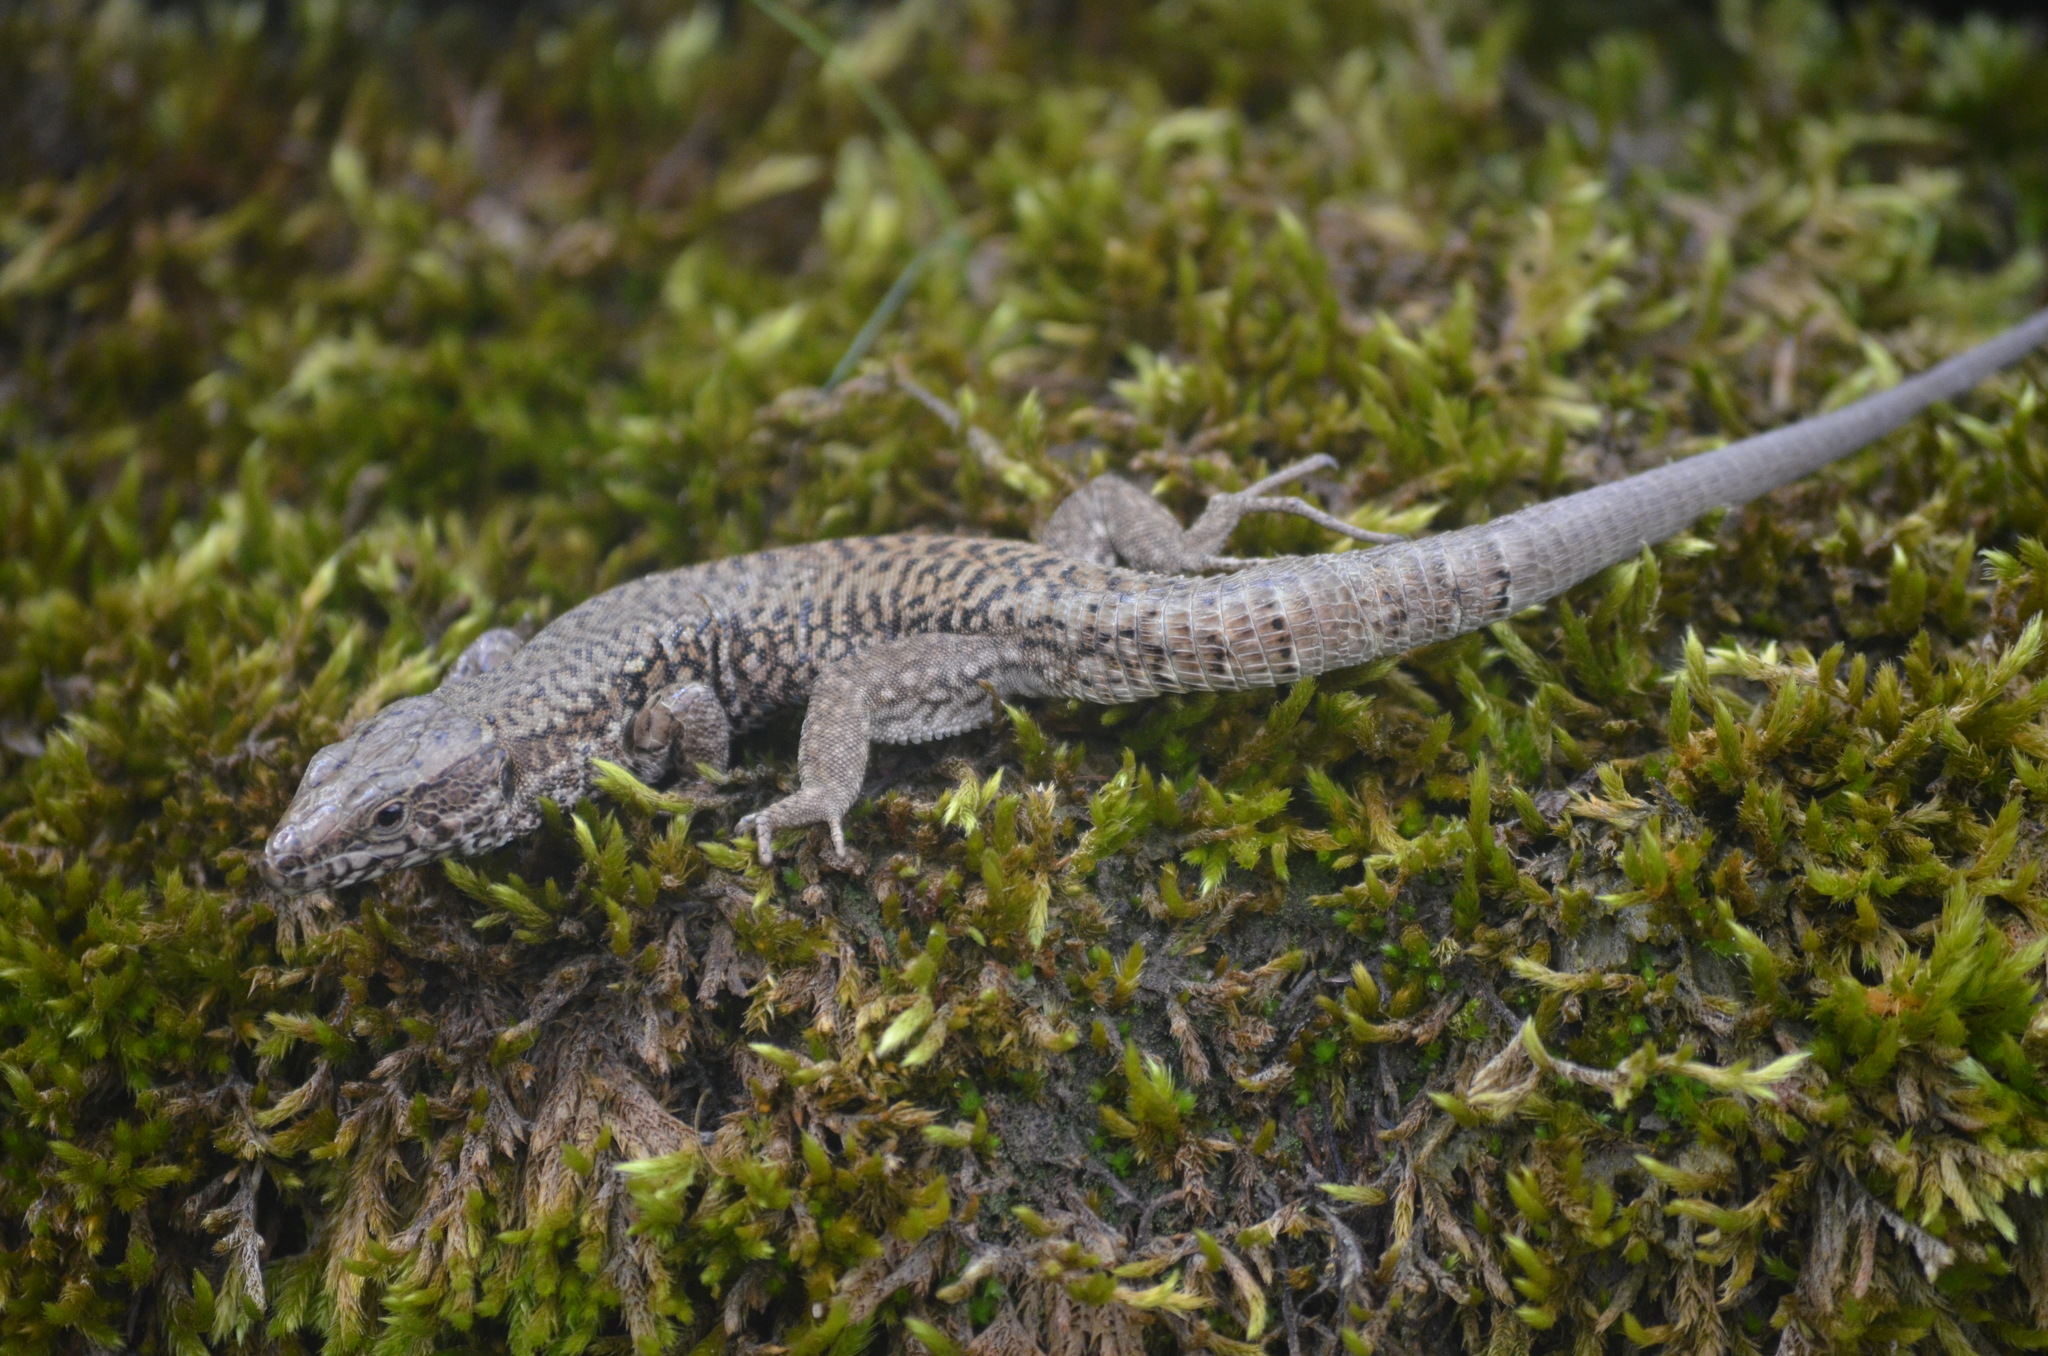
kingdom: Animalia
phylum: Chordata
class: Squamata
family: Lacertidae
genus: Podarcis
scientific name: Podarcis muralis
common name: Common wall lizard
